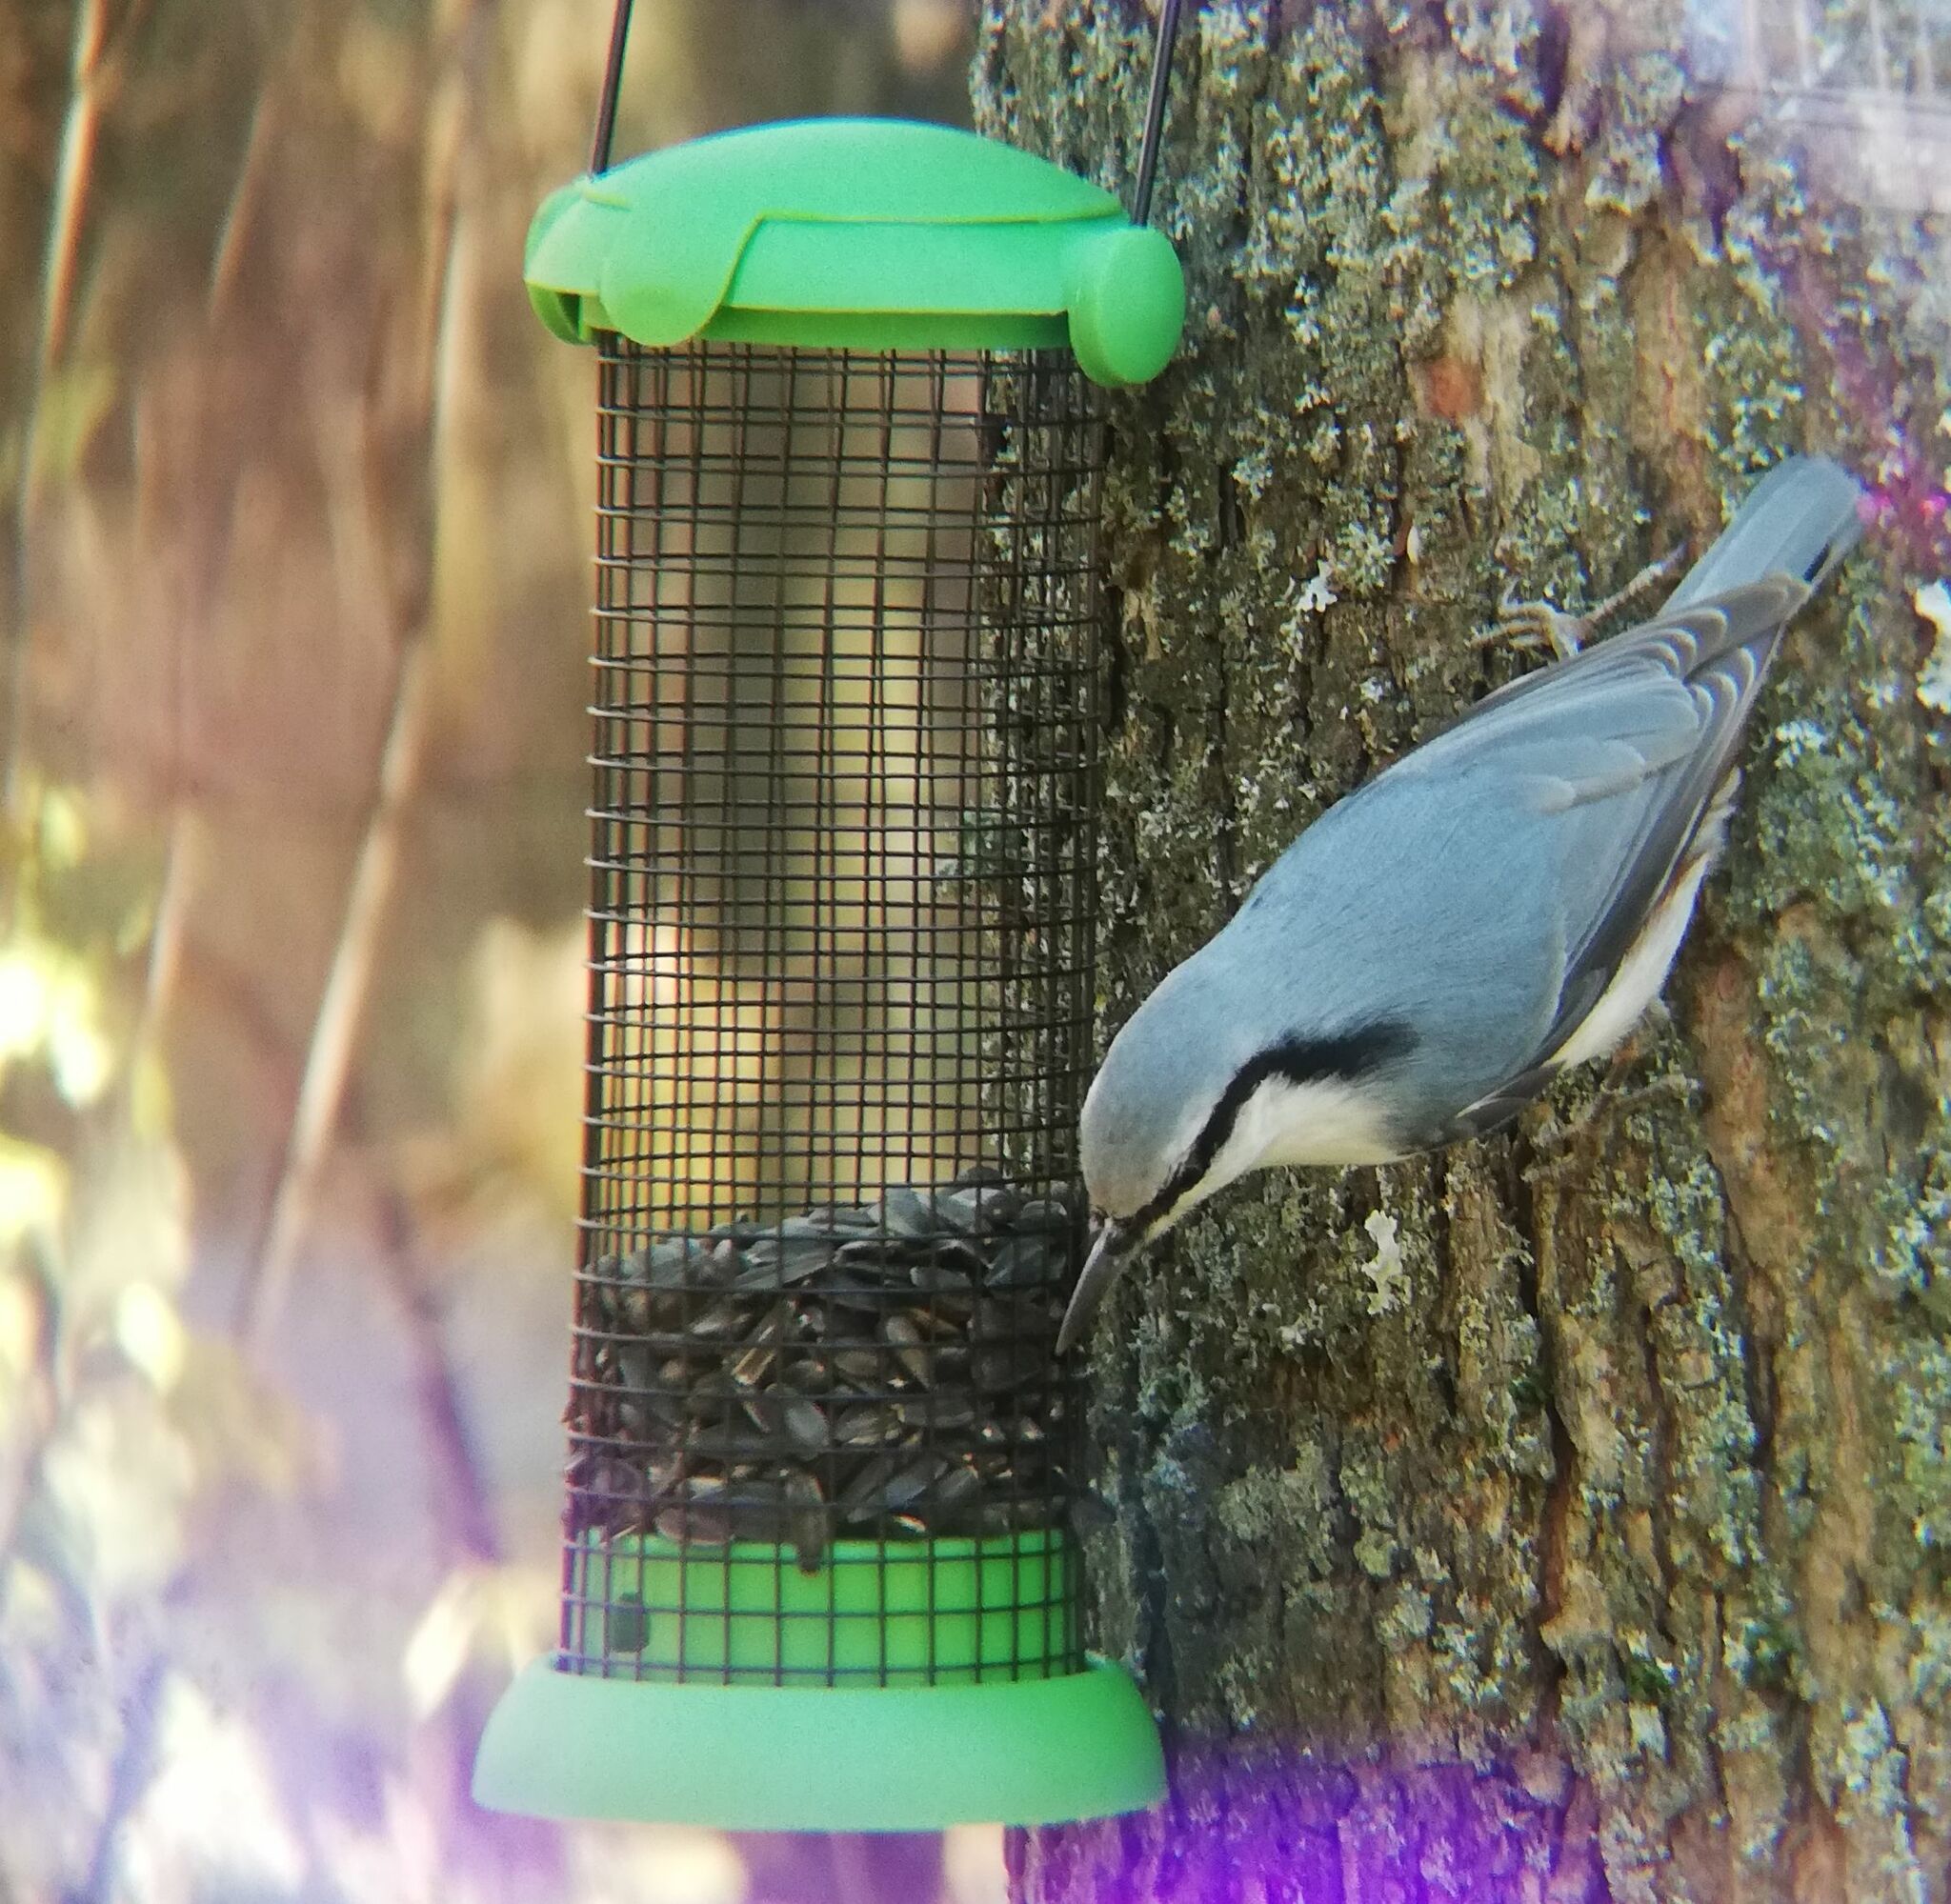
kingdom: Animalia
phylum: Chordata
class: Aves
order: Passeriformes
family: Sittidae
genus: Sitta
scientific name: Sitta europaea
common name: Eurasian nuthatch
